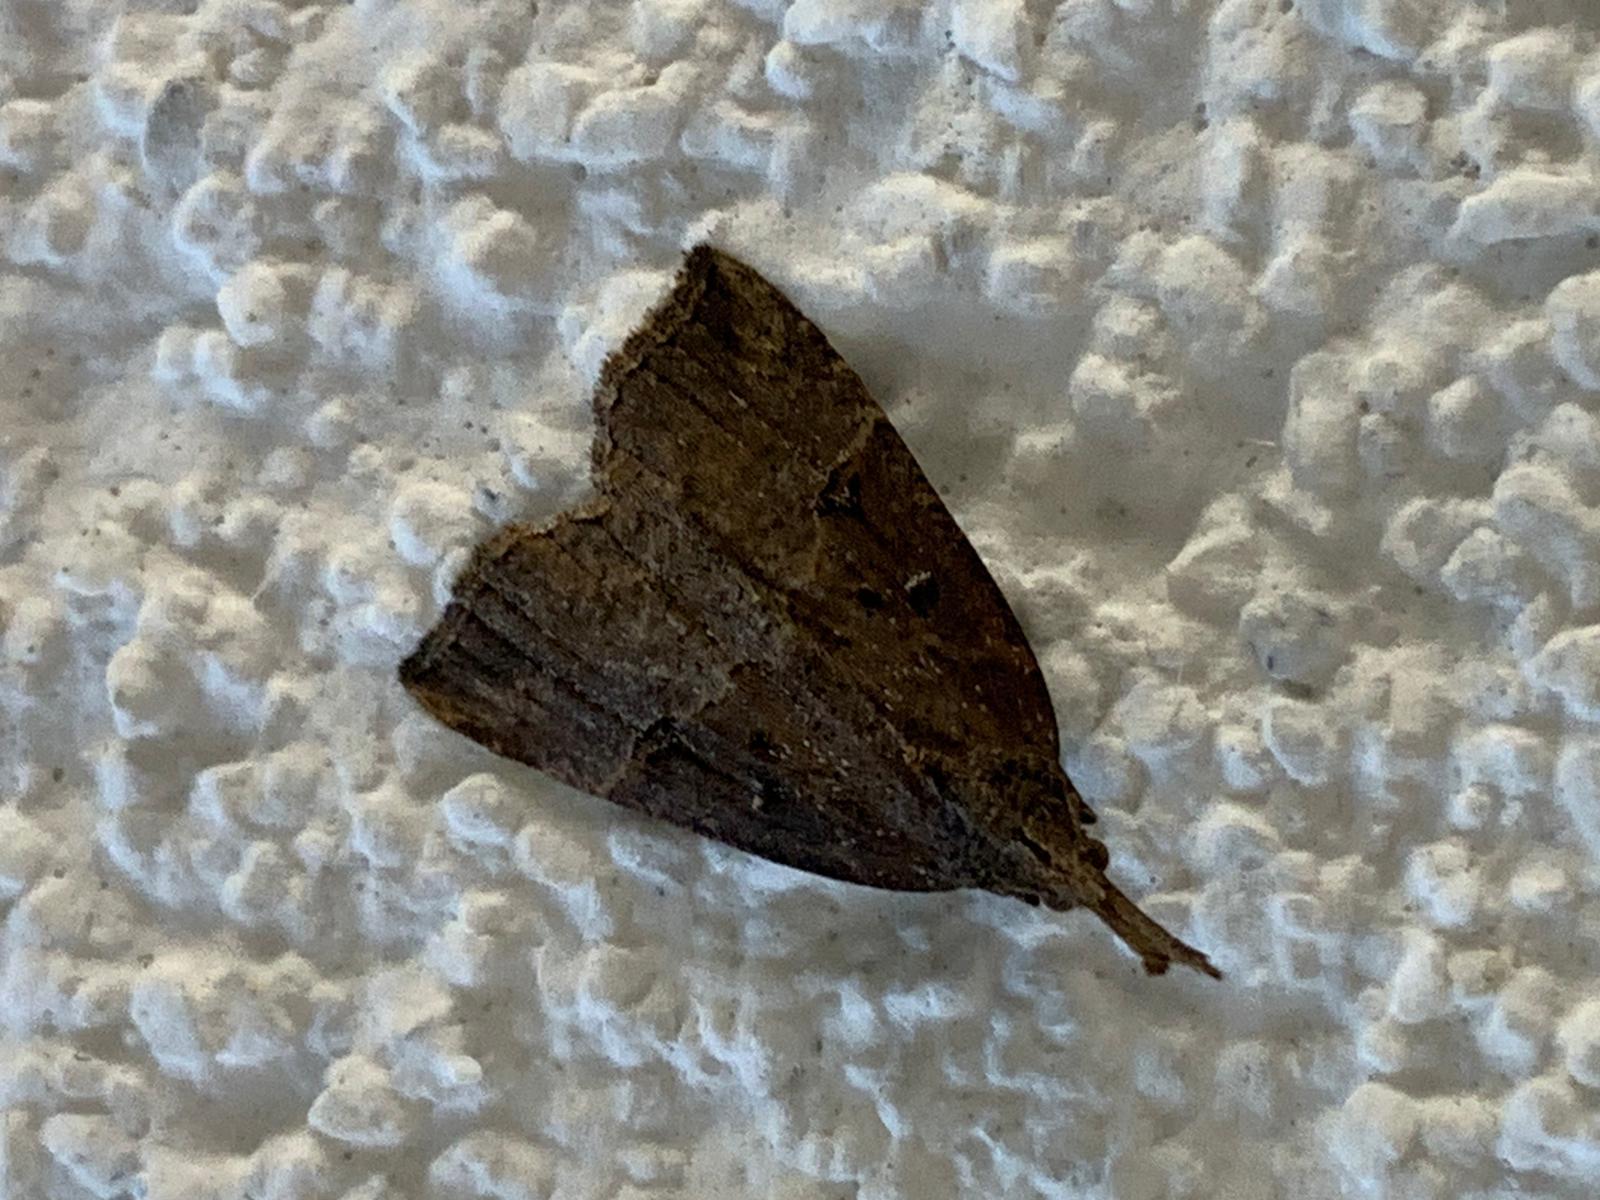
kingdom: Animalia
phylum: Arthropoda
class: Insecta
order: Lepidoptera
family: Erebidae
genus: Hypena
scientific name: Hypena rostralis
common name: Buttoned snout
